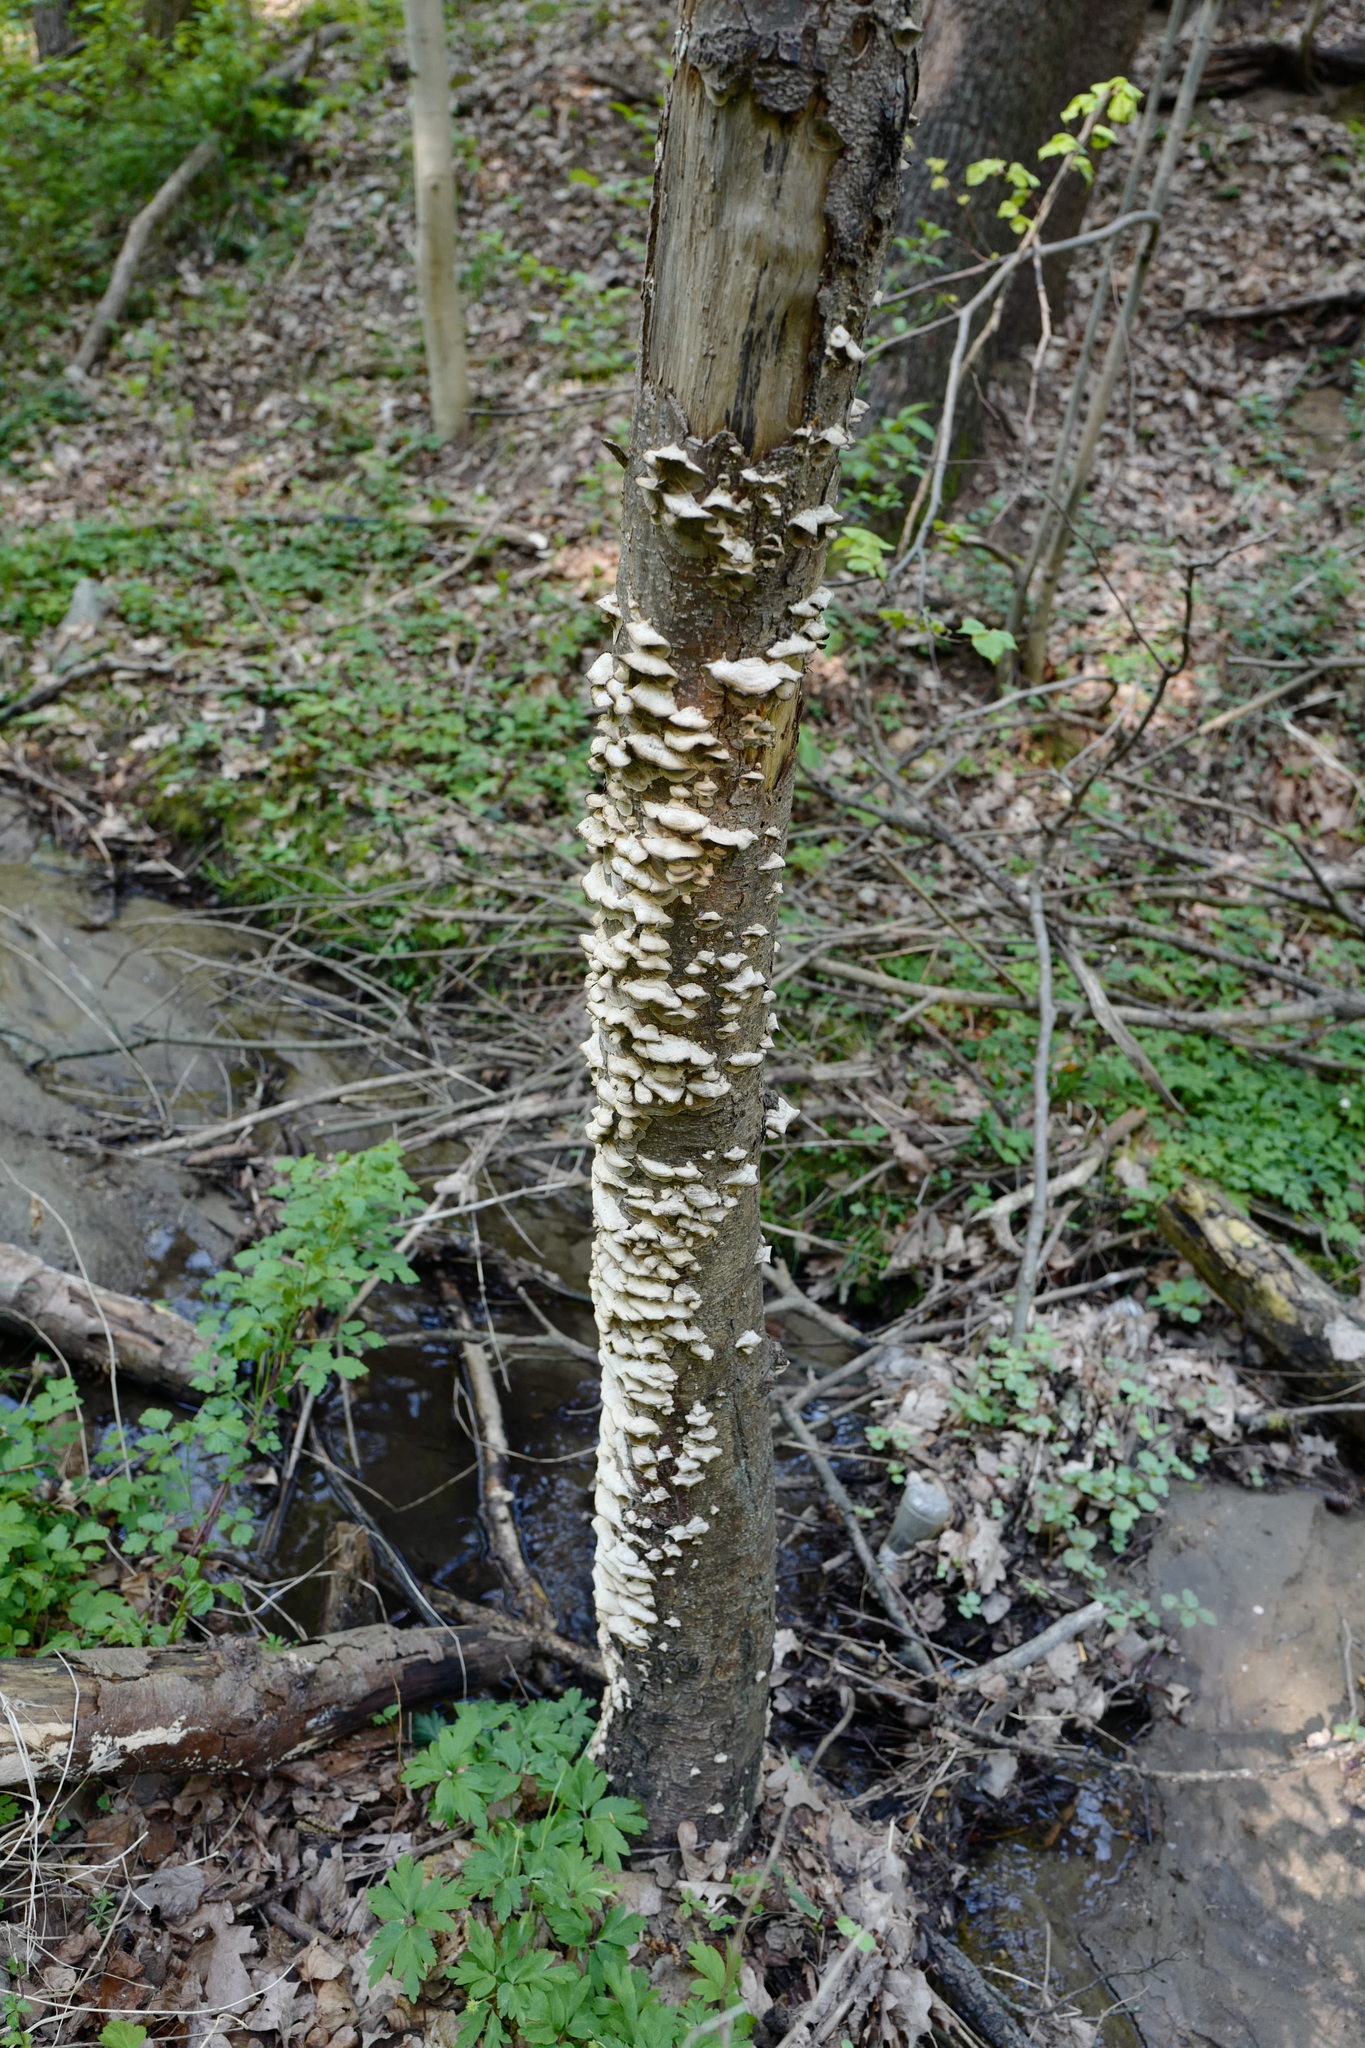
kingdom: Fungi
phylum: Basidiomycota
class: Agaricomycetes
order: Polyporales
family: Phanerochaetaceae
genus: Bjerkandera
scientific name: Bjerkandera adusta
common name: Smoky bracket
